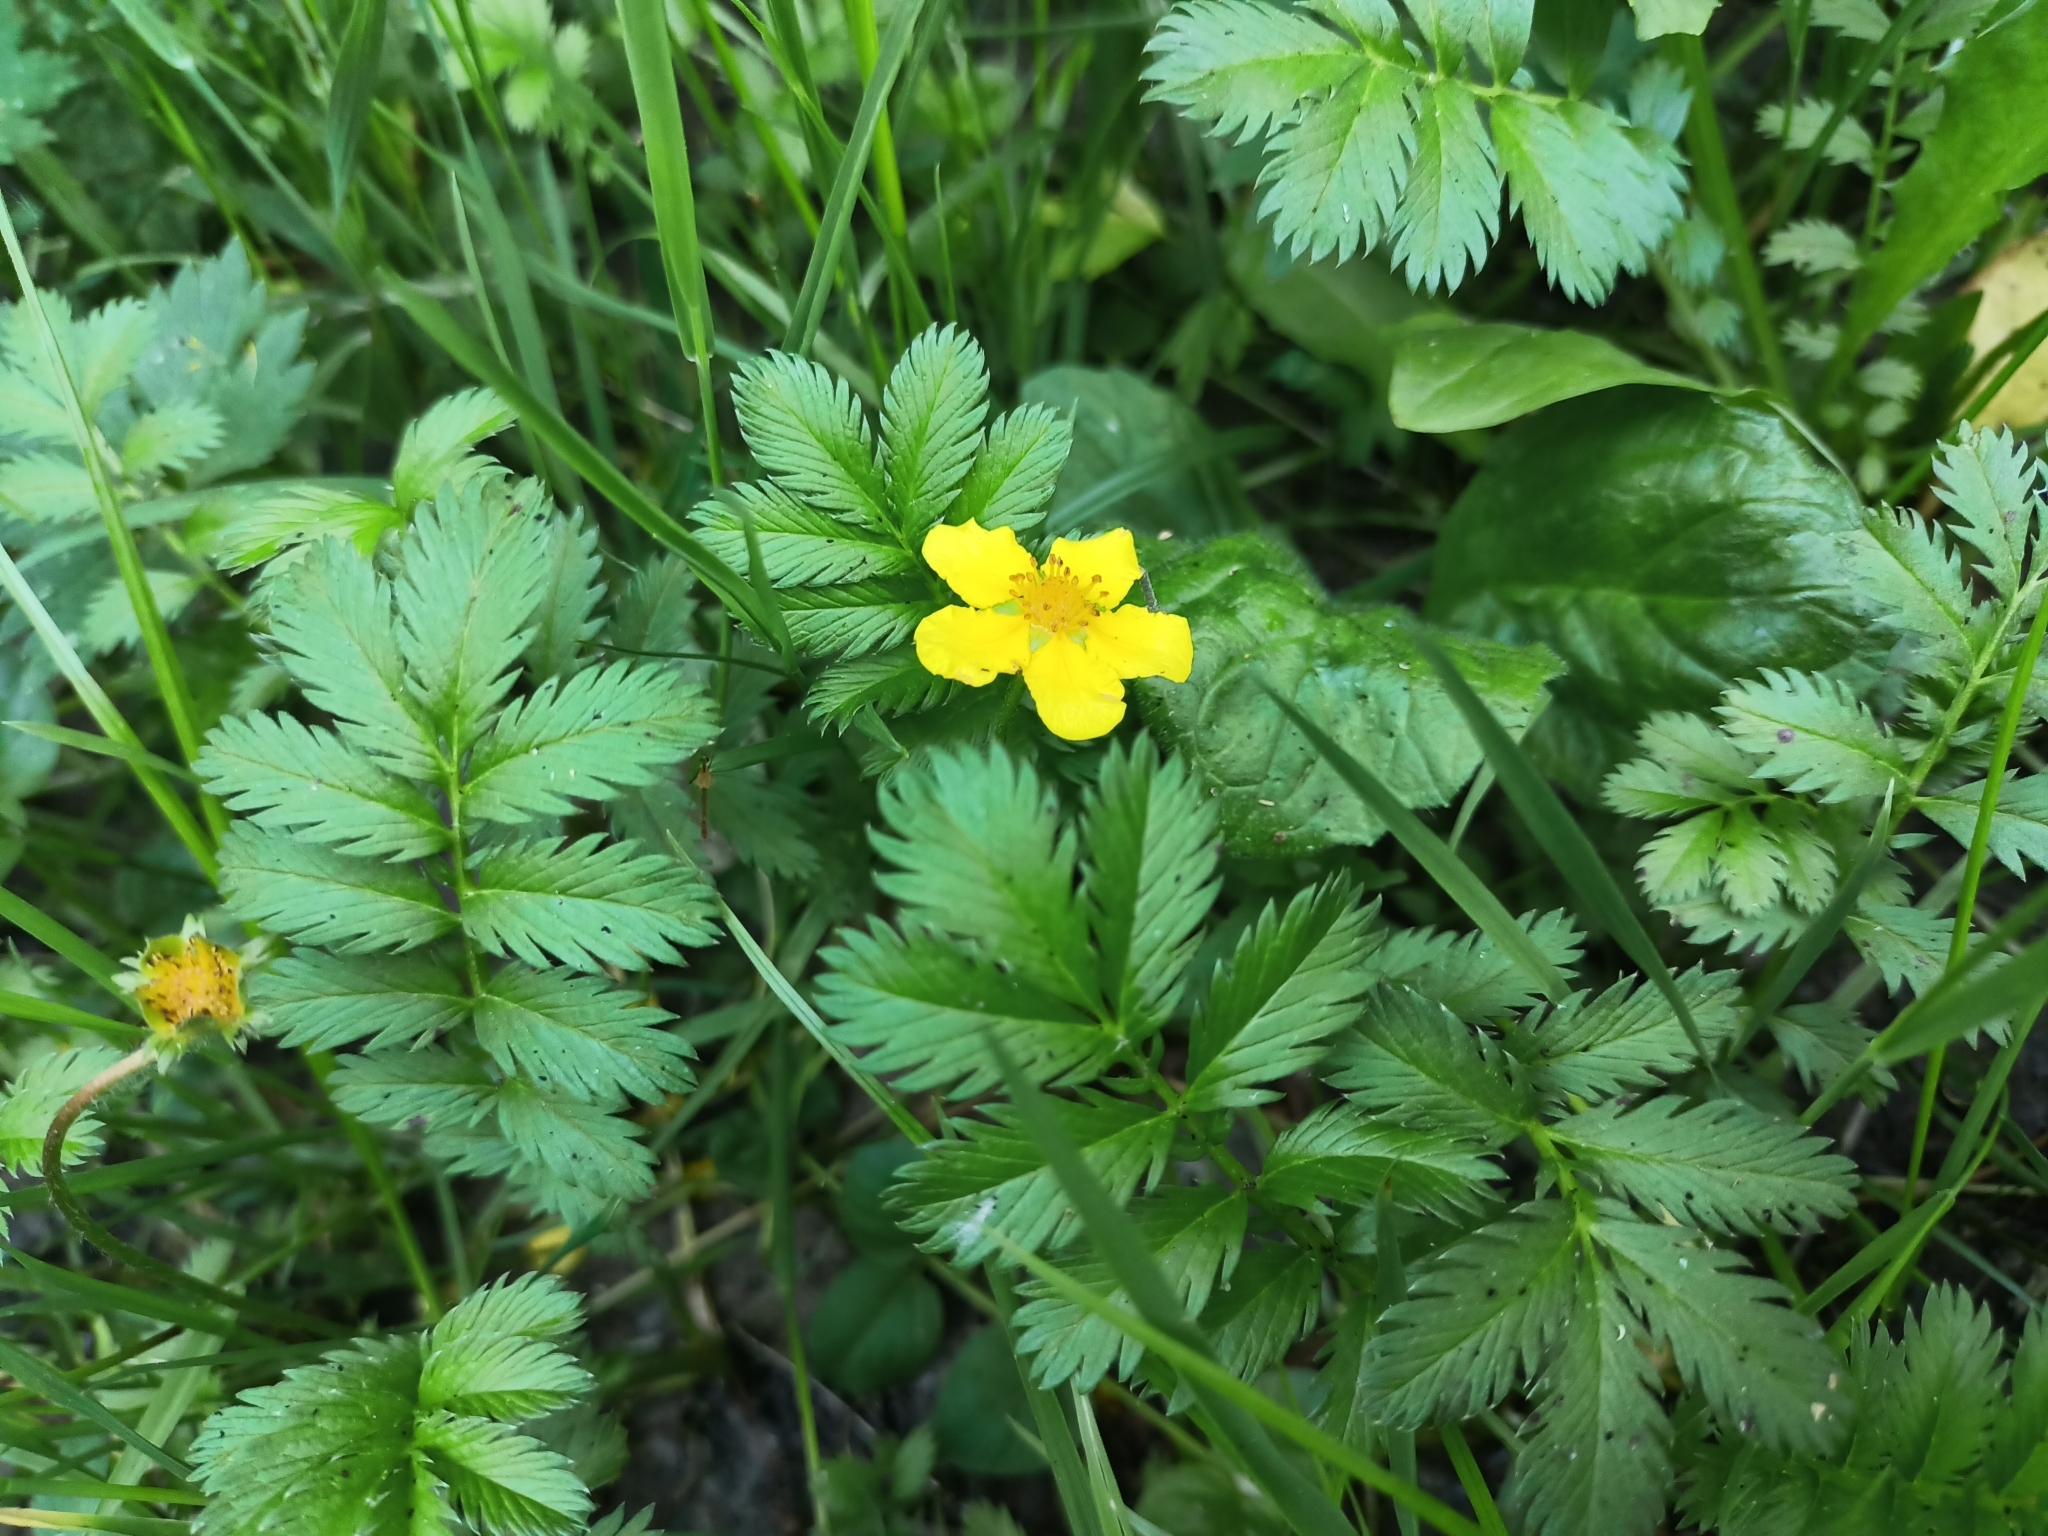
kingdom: Plantae
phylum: Tracheophyta
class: Magnoliopsida
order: Rosales
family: Rosaceae
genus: Argentina
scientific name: Argentina anserina
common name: Common silverweed
